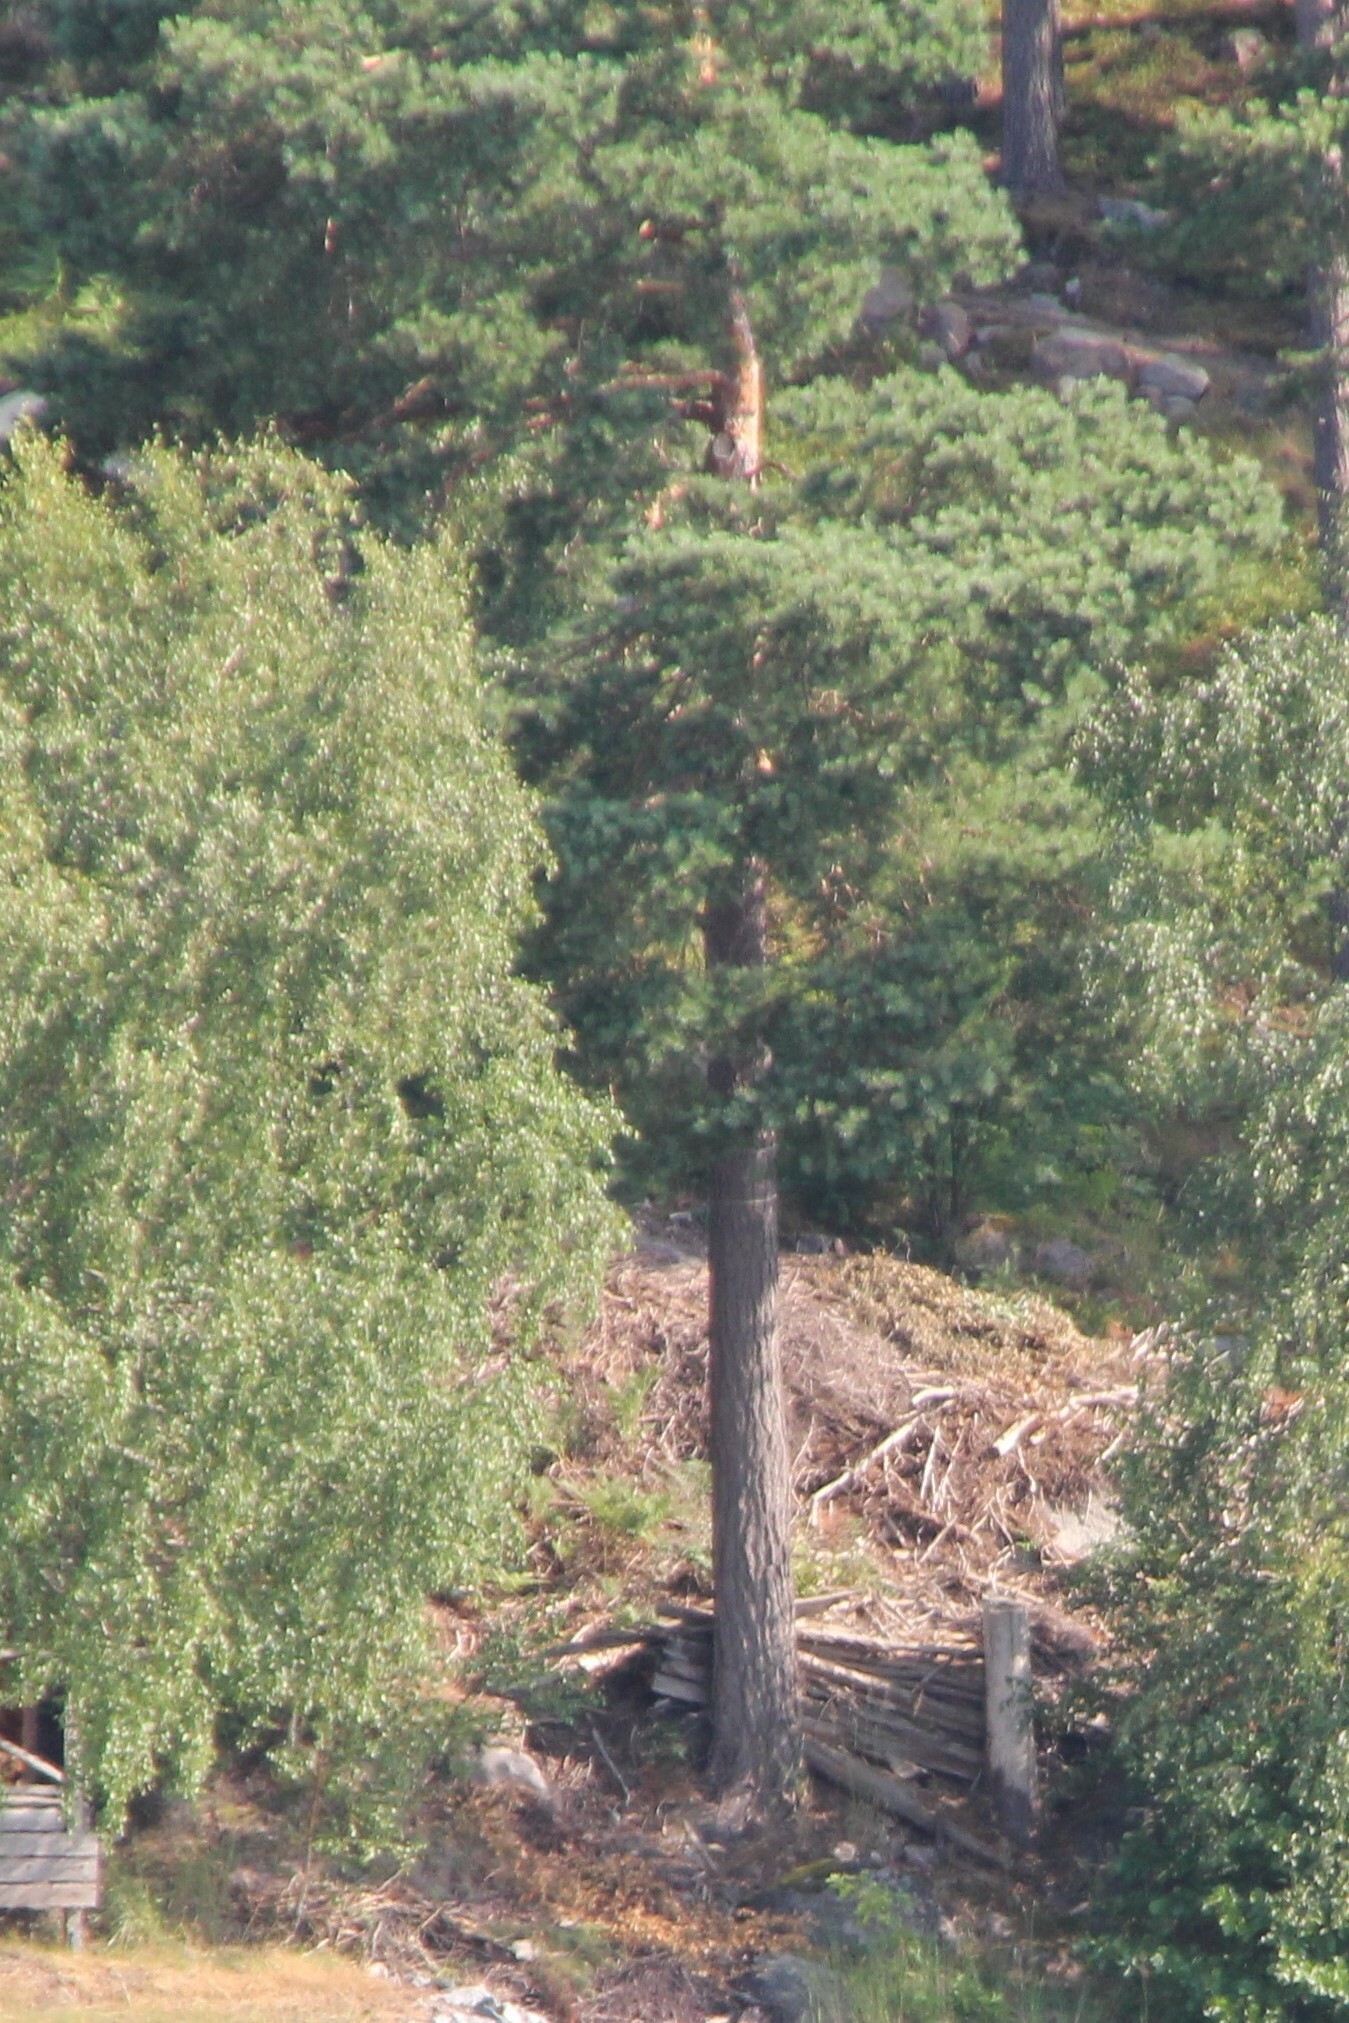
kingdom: Plantae
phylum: Tracheophyta
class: Pinopsida
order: Pinales
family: Pinaceae
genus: Pinus
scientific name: Pinus sylvestris
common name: Scots pine
